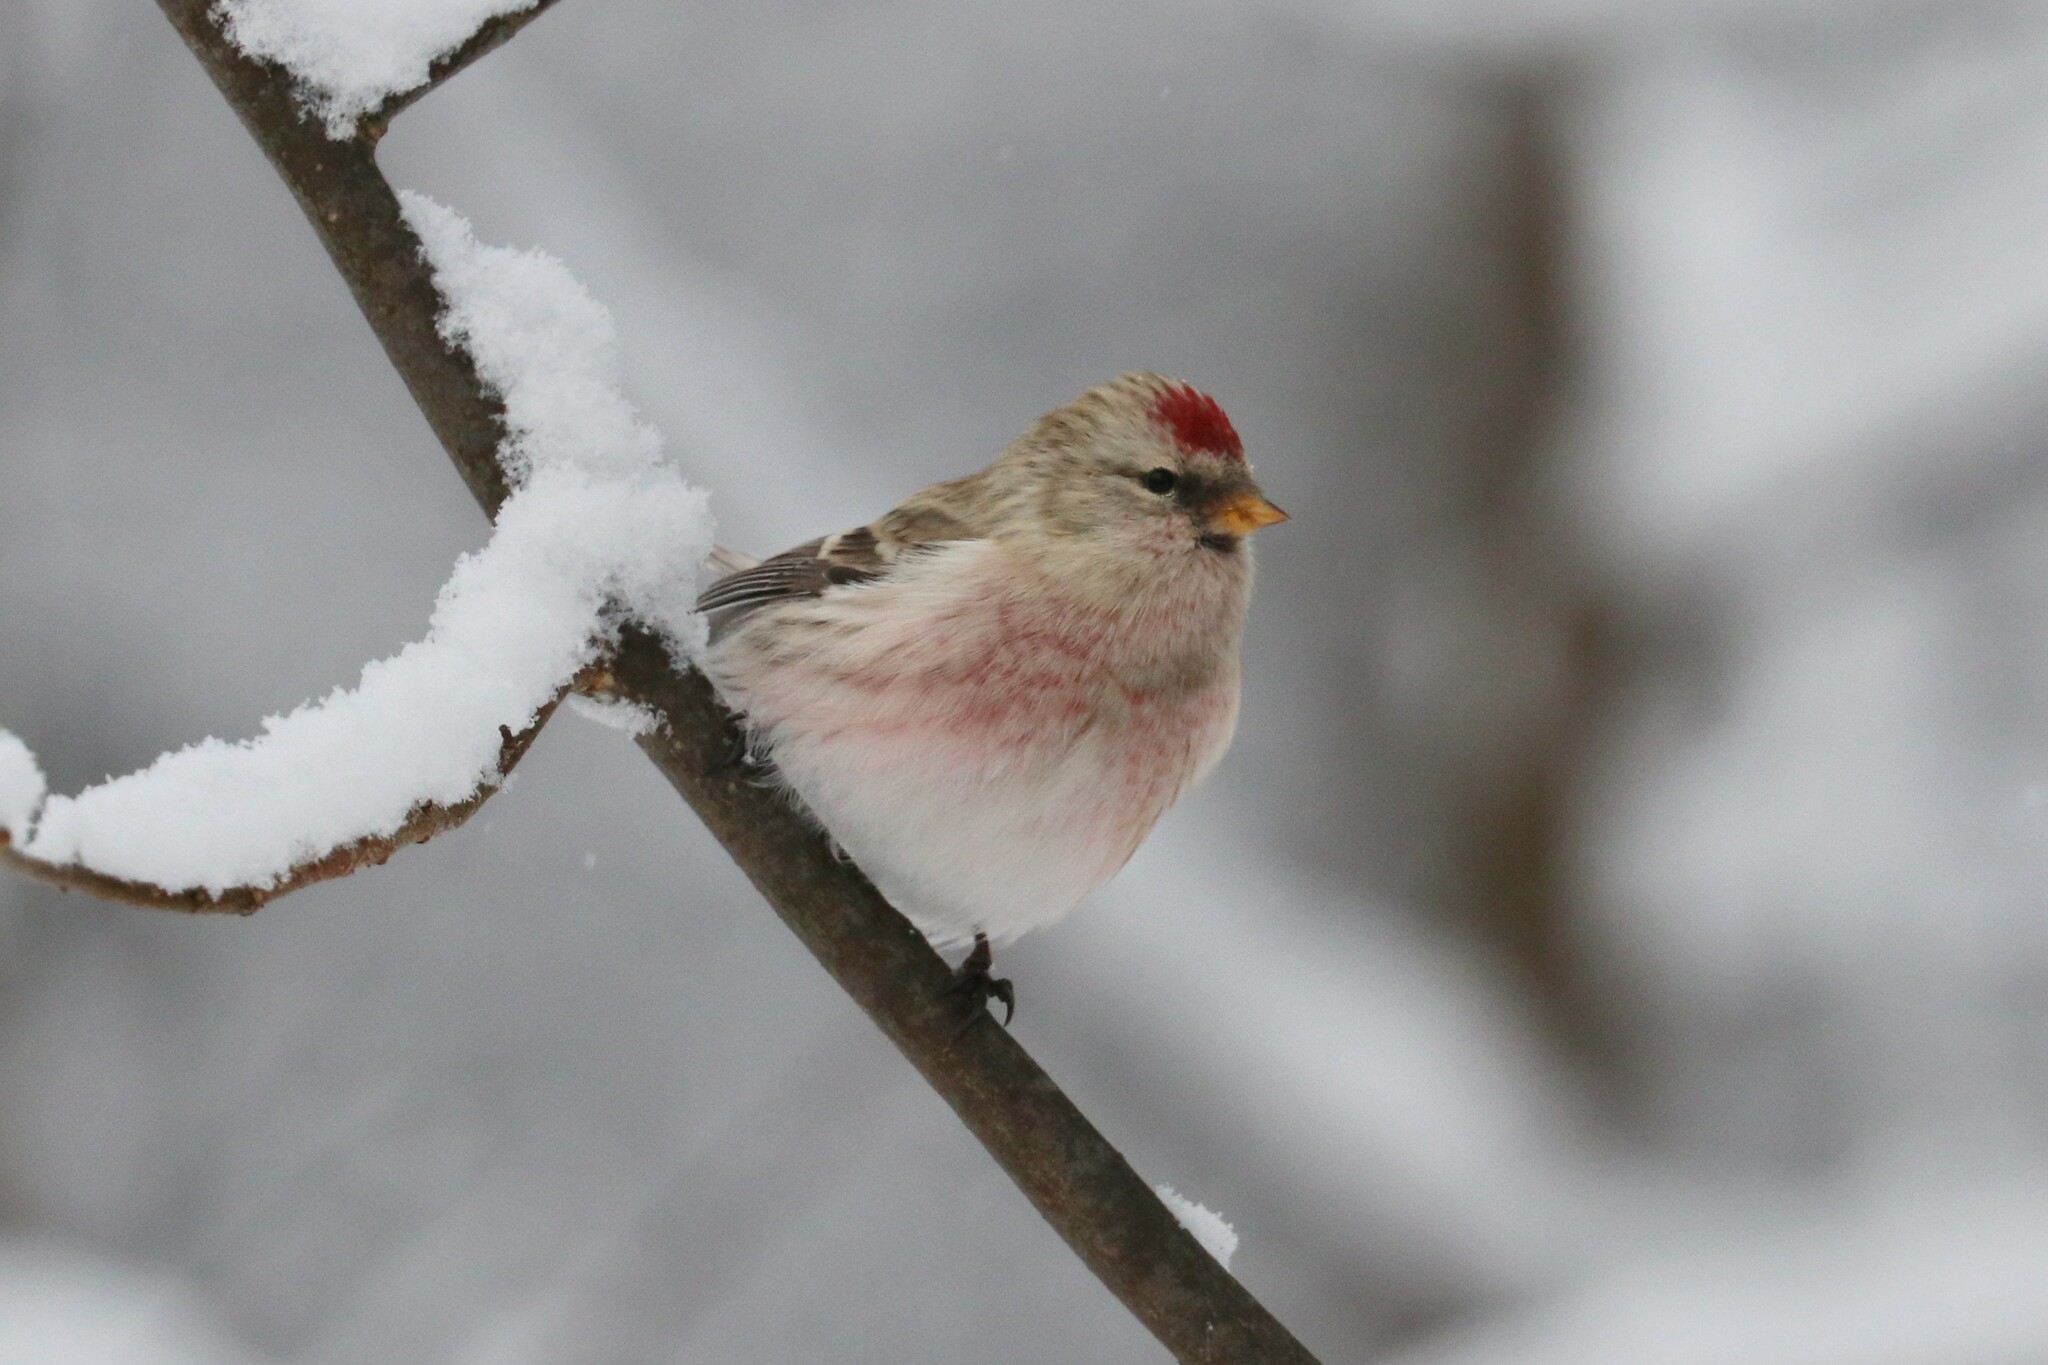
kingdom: Animalia
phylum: Chordata
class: Aves
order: Passeriformes
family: Fringillidae
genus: Acanthis
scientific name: Acanthis flammea
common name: Common redpoll
